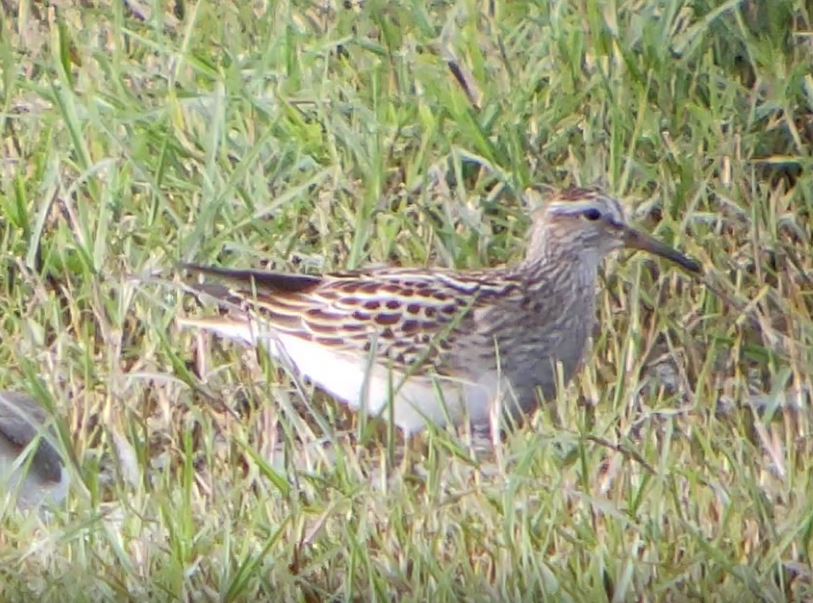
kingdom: Animalia
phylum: Chordata
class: Aves
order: Charadriiformes
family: Scolopacidae
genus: Calidris
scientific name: Calidris melanotos
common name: Pectoral sandpiper
